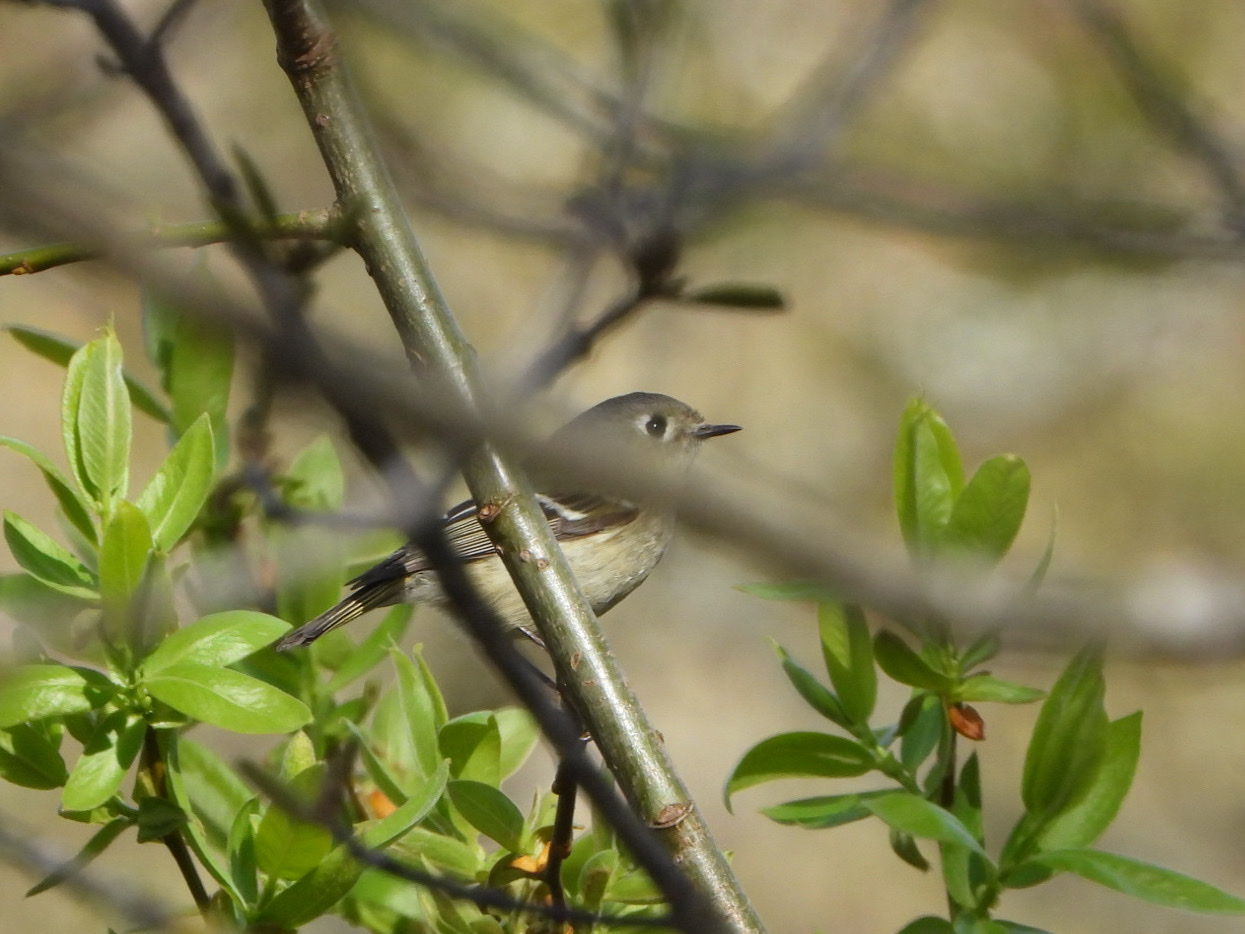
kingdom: Animalia
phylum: Chordata
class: Aves
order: Passeriformes
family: Regulidae
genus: Regulus
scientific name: Regulus calendula
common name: Ruby-crowned kinglet
